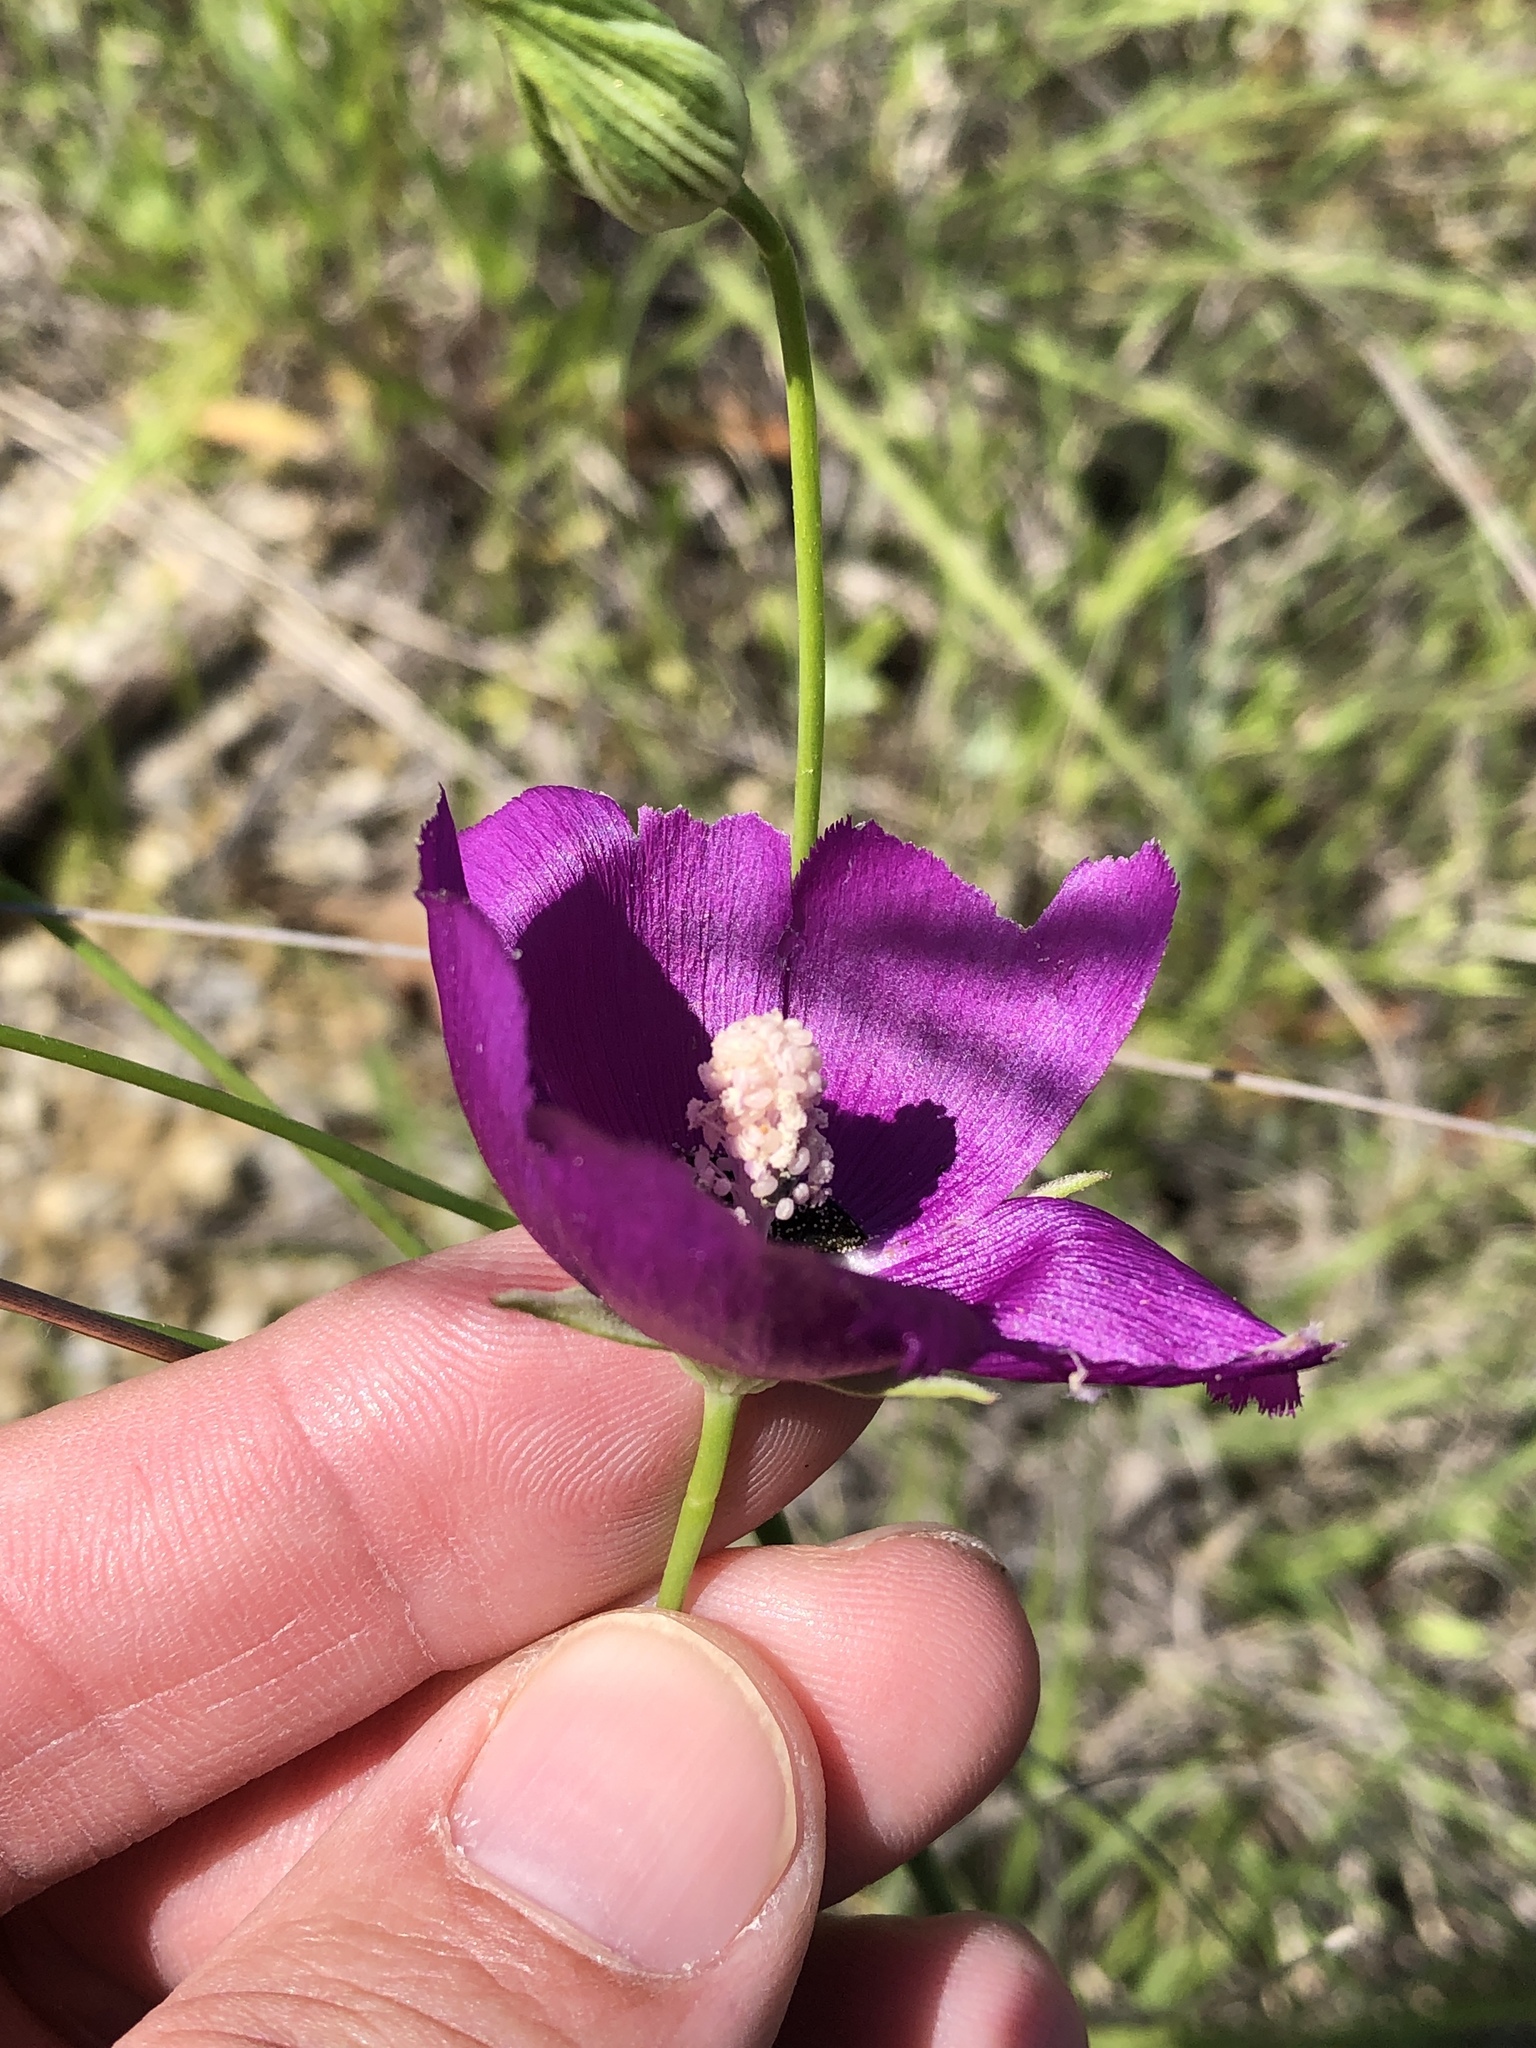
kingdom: Plantae
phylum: Tracheophyta
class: Magnoliopsida
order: Malvales
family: Malvaceae
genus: Callirhoe
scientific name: Callirhoe pedata
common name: Finger poppy-mallow
